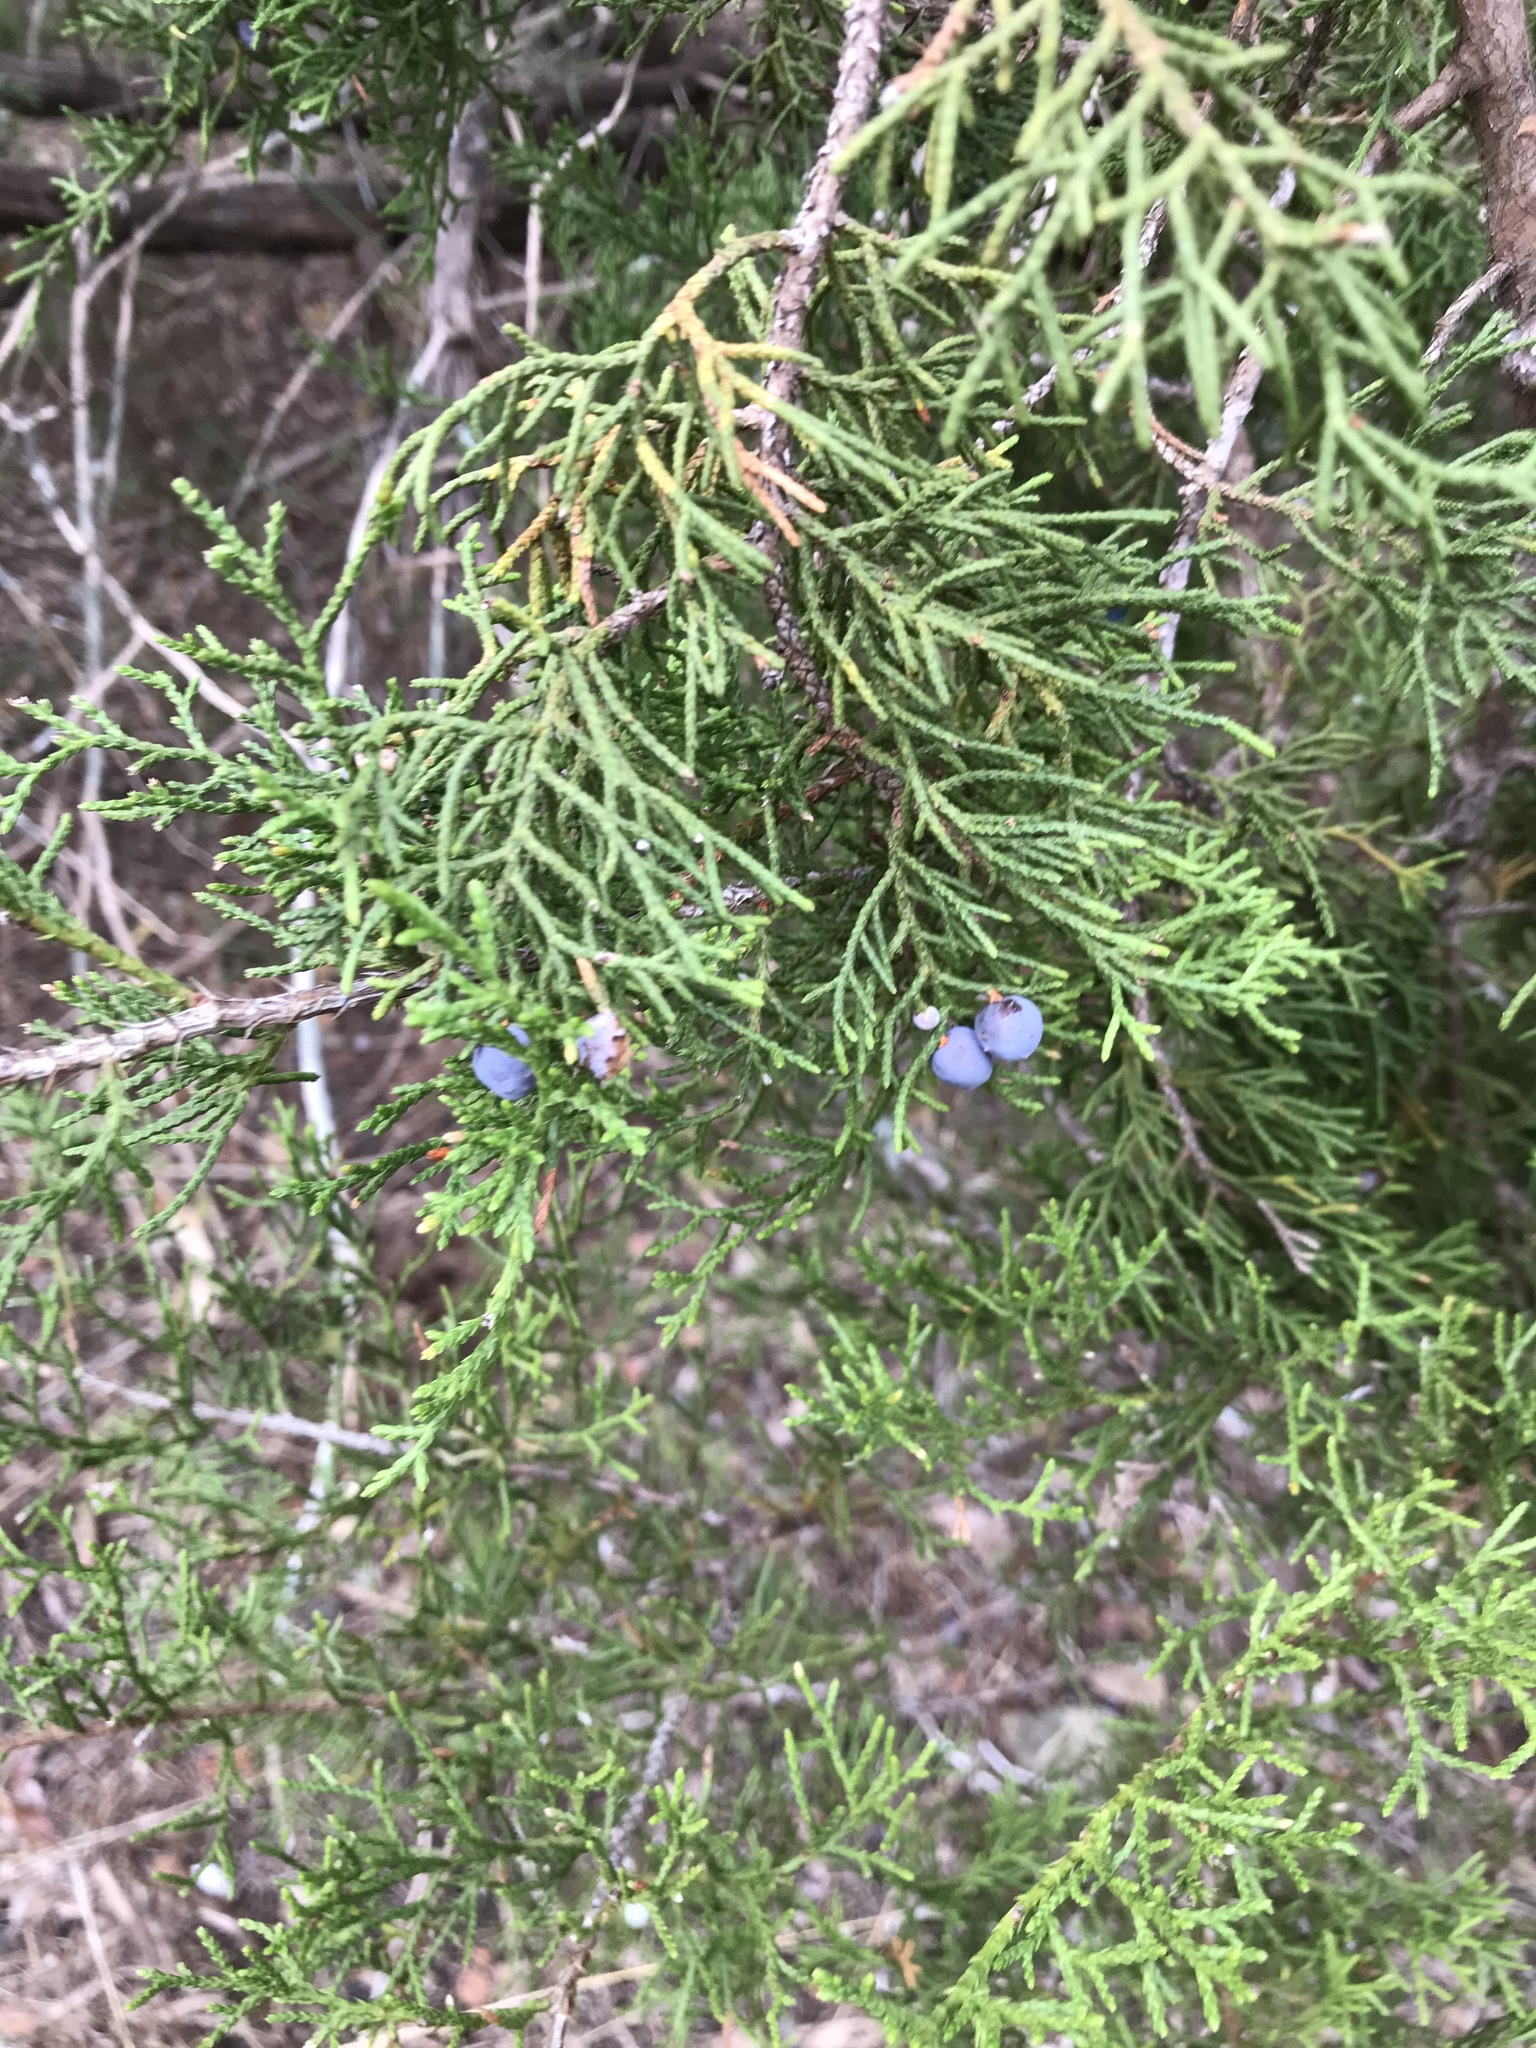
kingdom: Plantae
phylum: Tracheophyta
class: Pinopsida
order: Pinales
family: Cupressaceae
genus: Juniperus
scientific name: Juniperus ashei
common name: Mexican juniper
